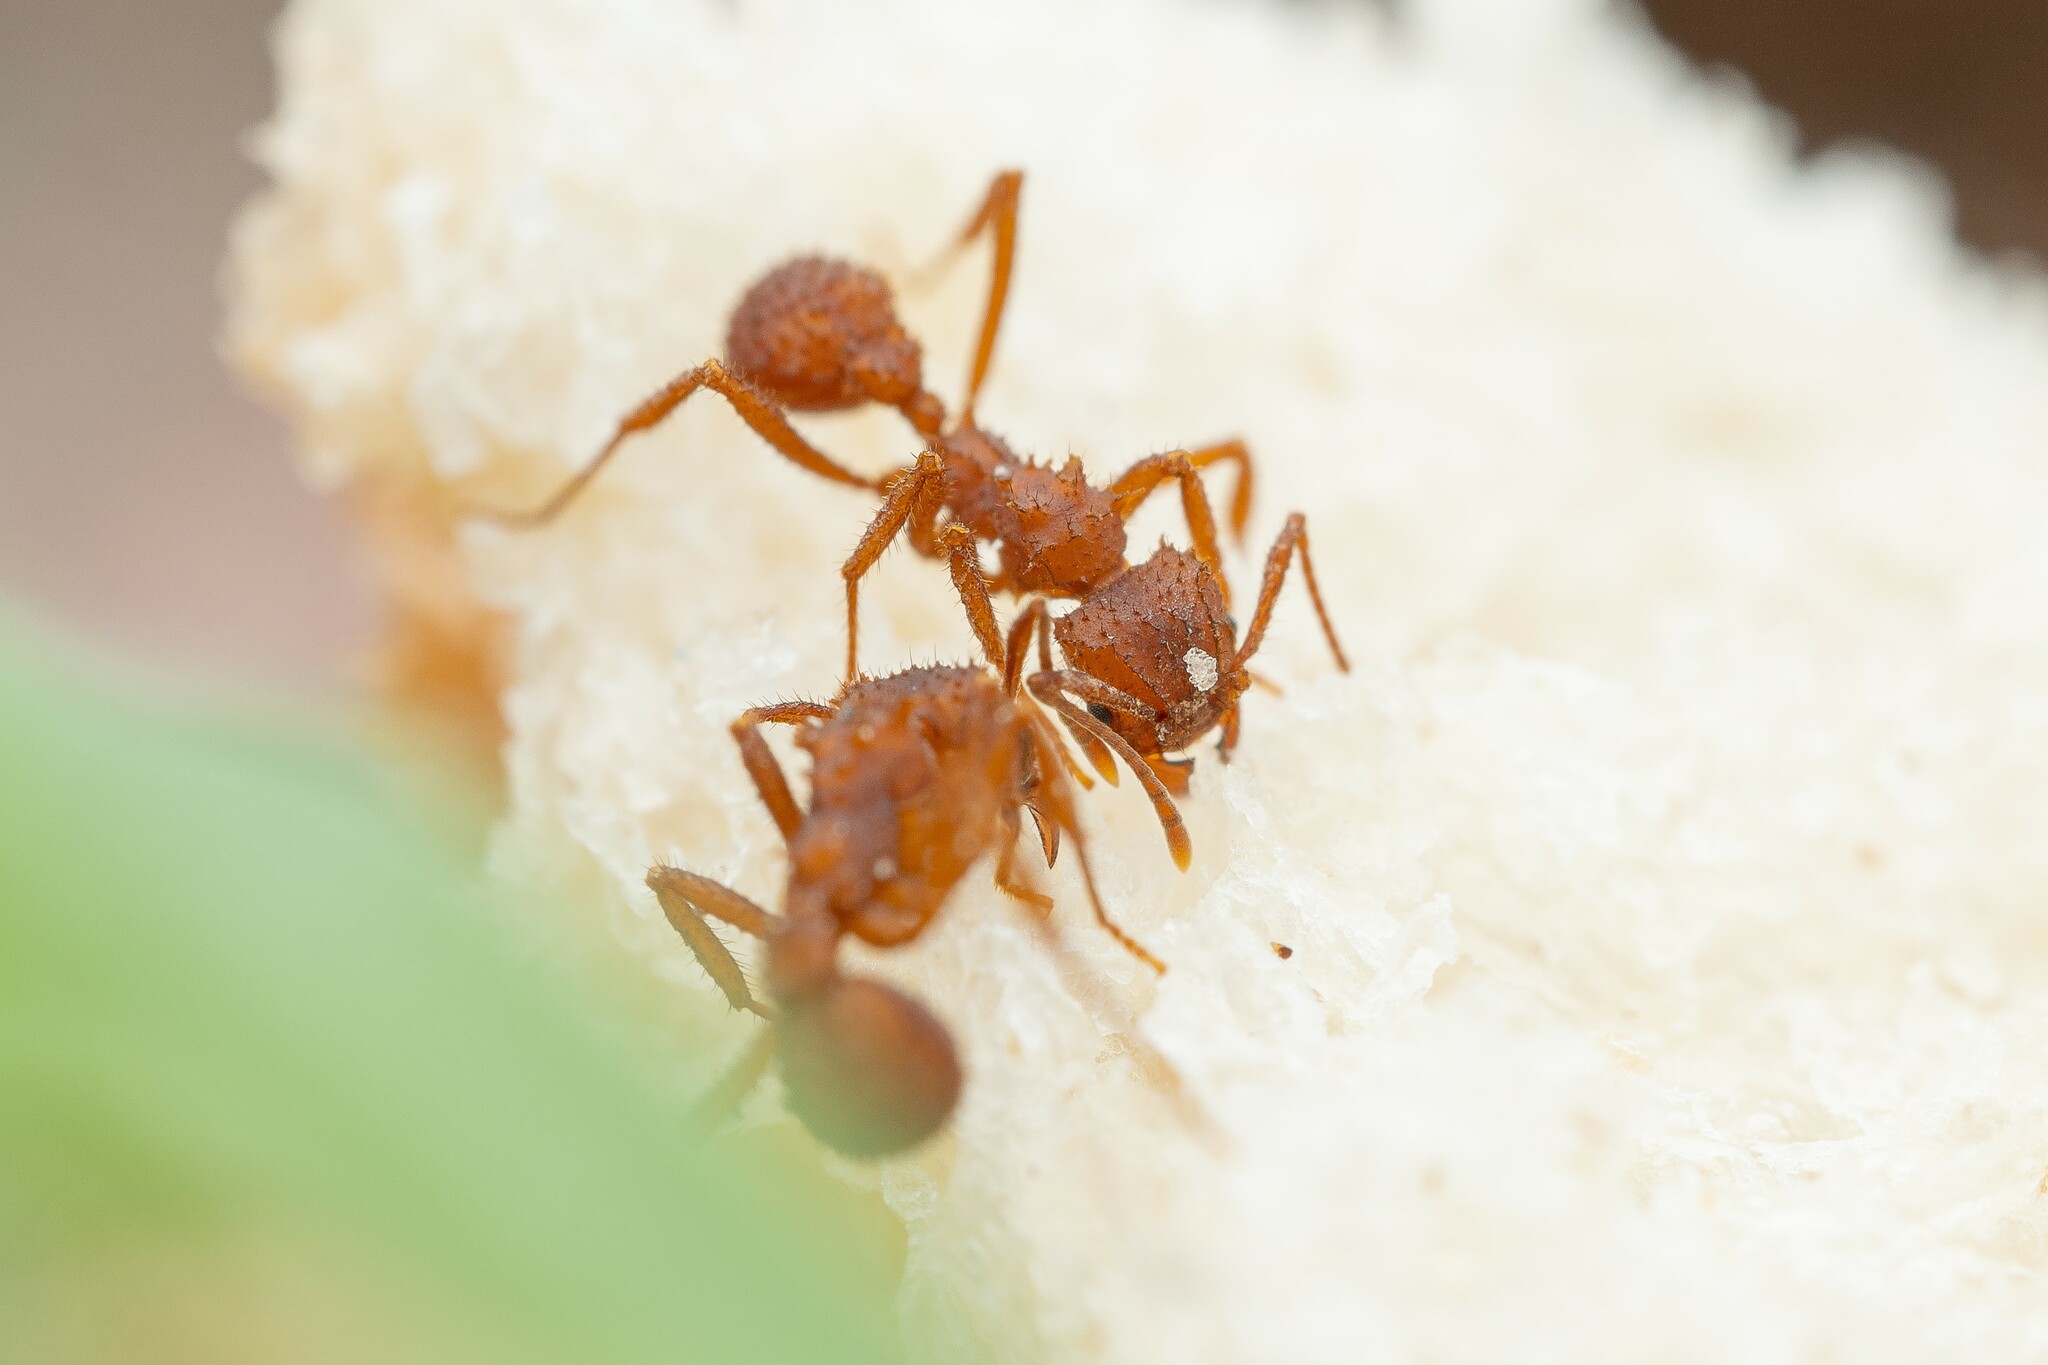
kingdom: Animalia
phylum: Arthropoda
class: Insecta
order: Hymenoptera
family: Formicidae
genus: Trachymyrmex
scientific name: Trachymyrmex arizonensis
